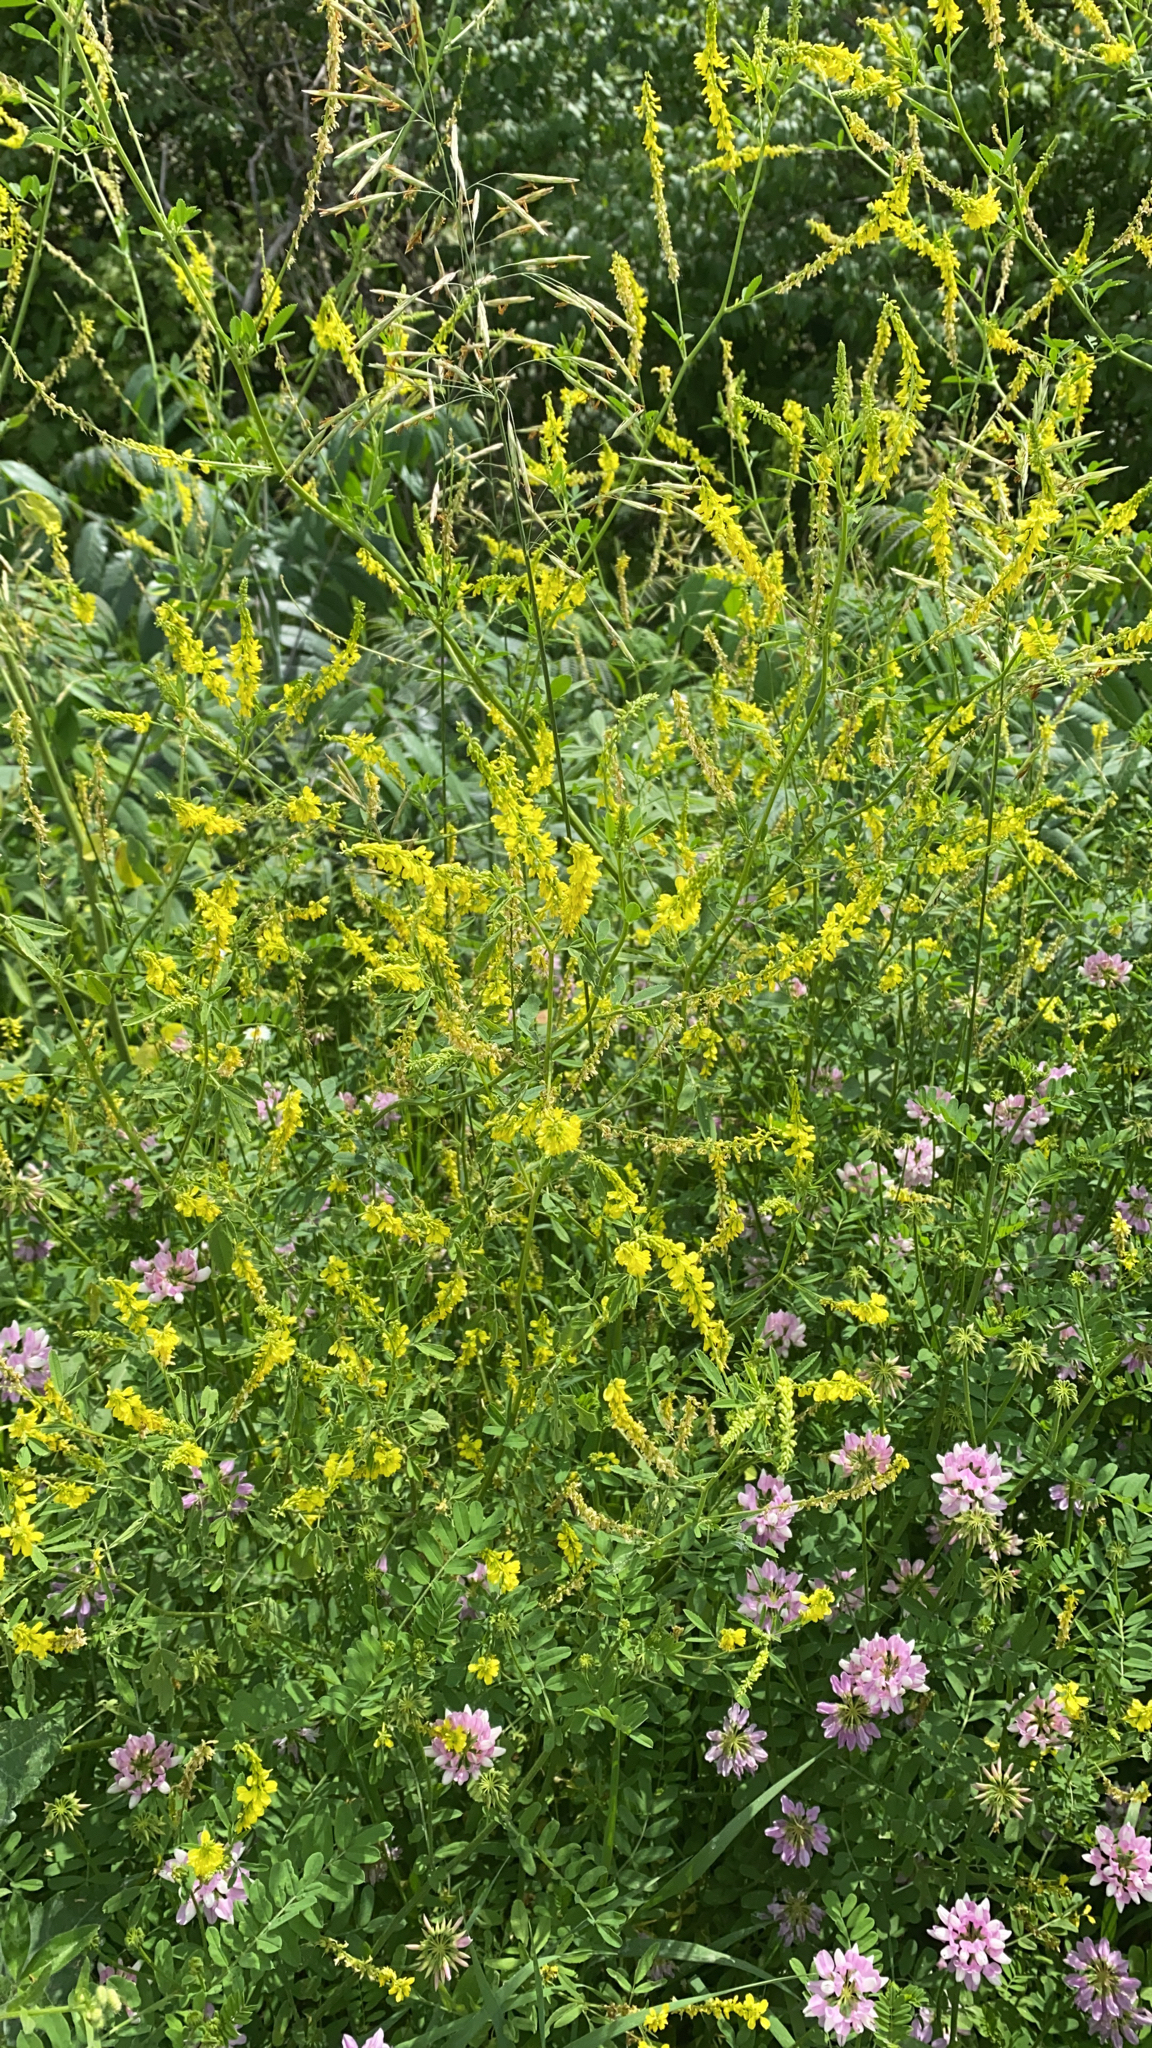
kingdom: Plantae
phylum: Tracheophyta
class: Magnoliopsida
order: Fabales
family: Fabaceae
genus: Melilotus
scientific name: Melilotus officinalis
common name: Sweetclover
